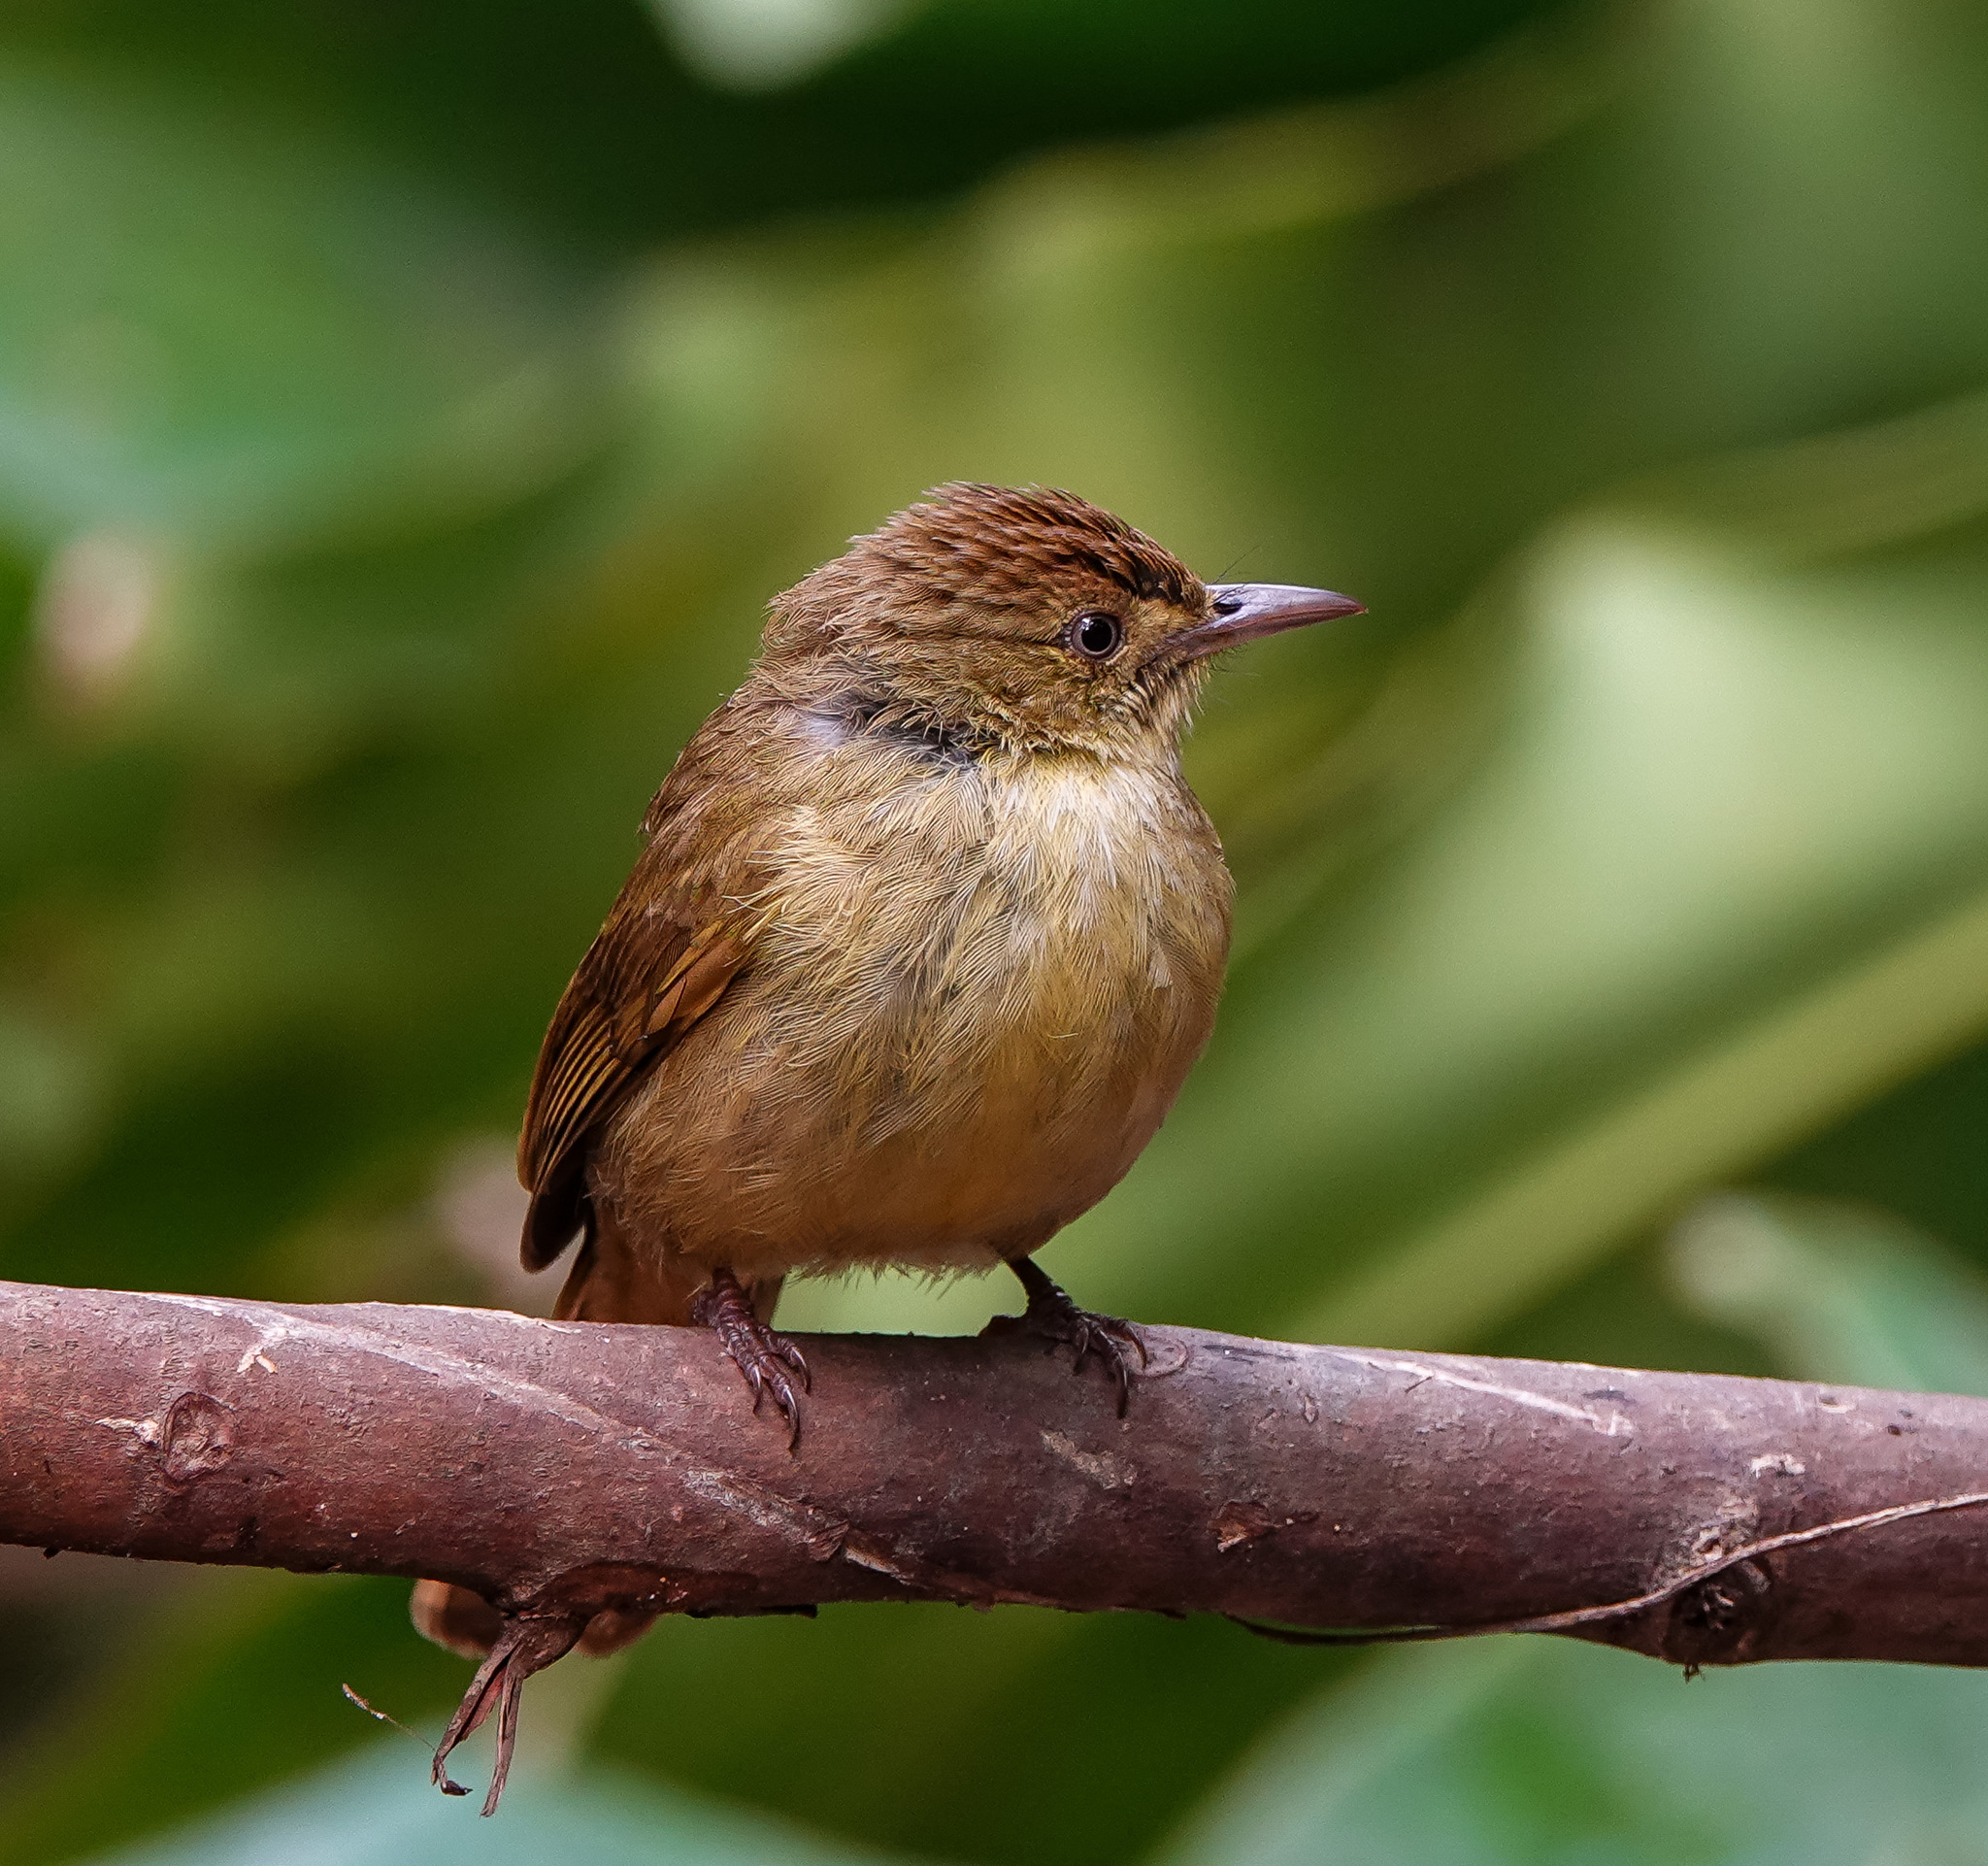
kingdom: Animalia
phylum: Chordata
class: Aves
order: Passeriformes
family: Pycnonotidae
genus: Iole
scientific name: Iole virescens
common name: Olive bulbul
